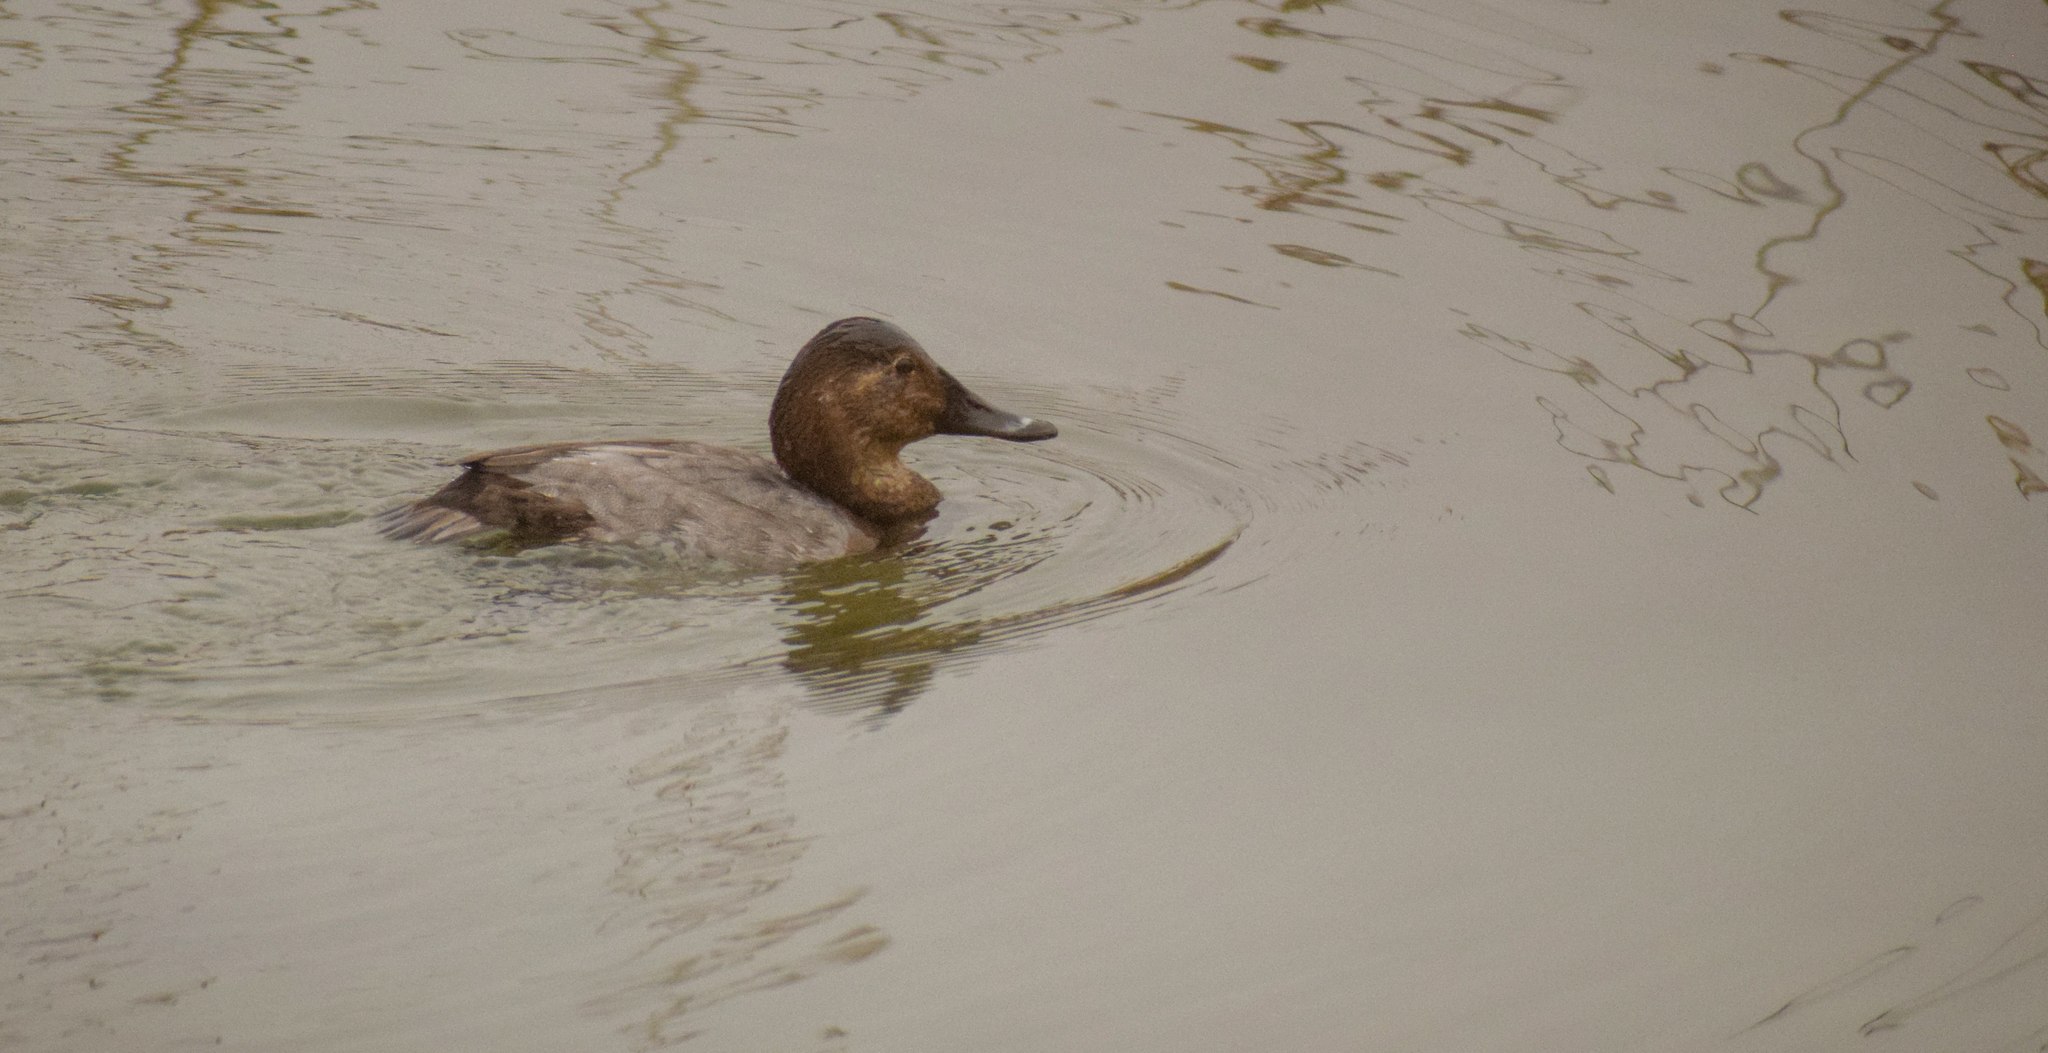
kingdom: Animalia
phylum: Chordata
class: Aves
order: Anseriformes
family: Anatidae
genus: Aythya
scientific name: Aythya ferina
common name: Common pochard
